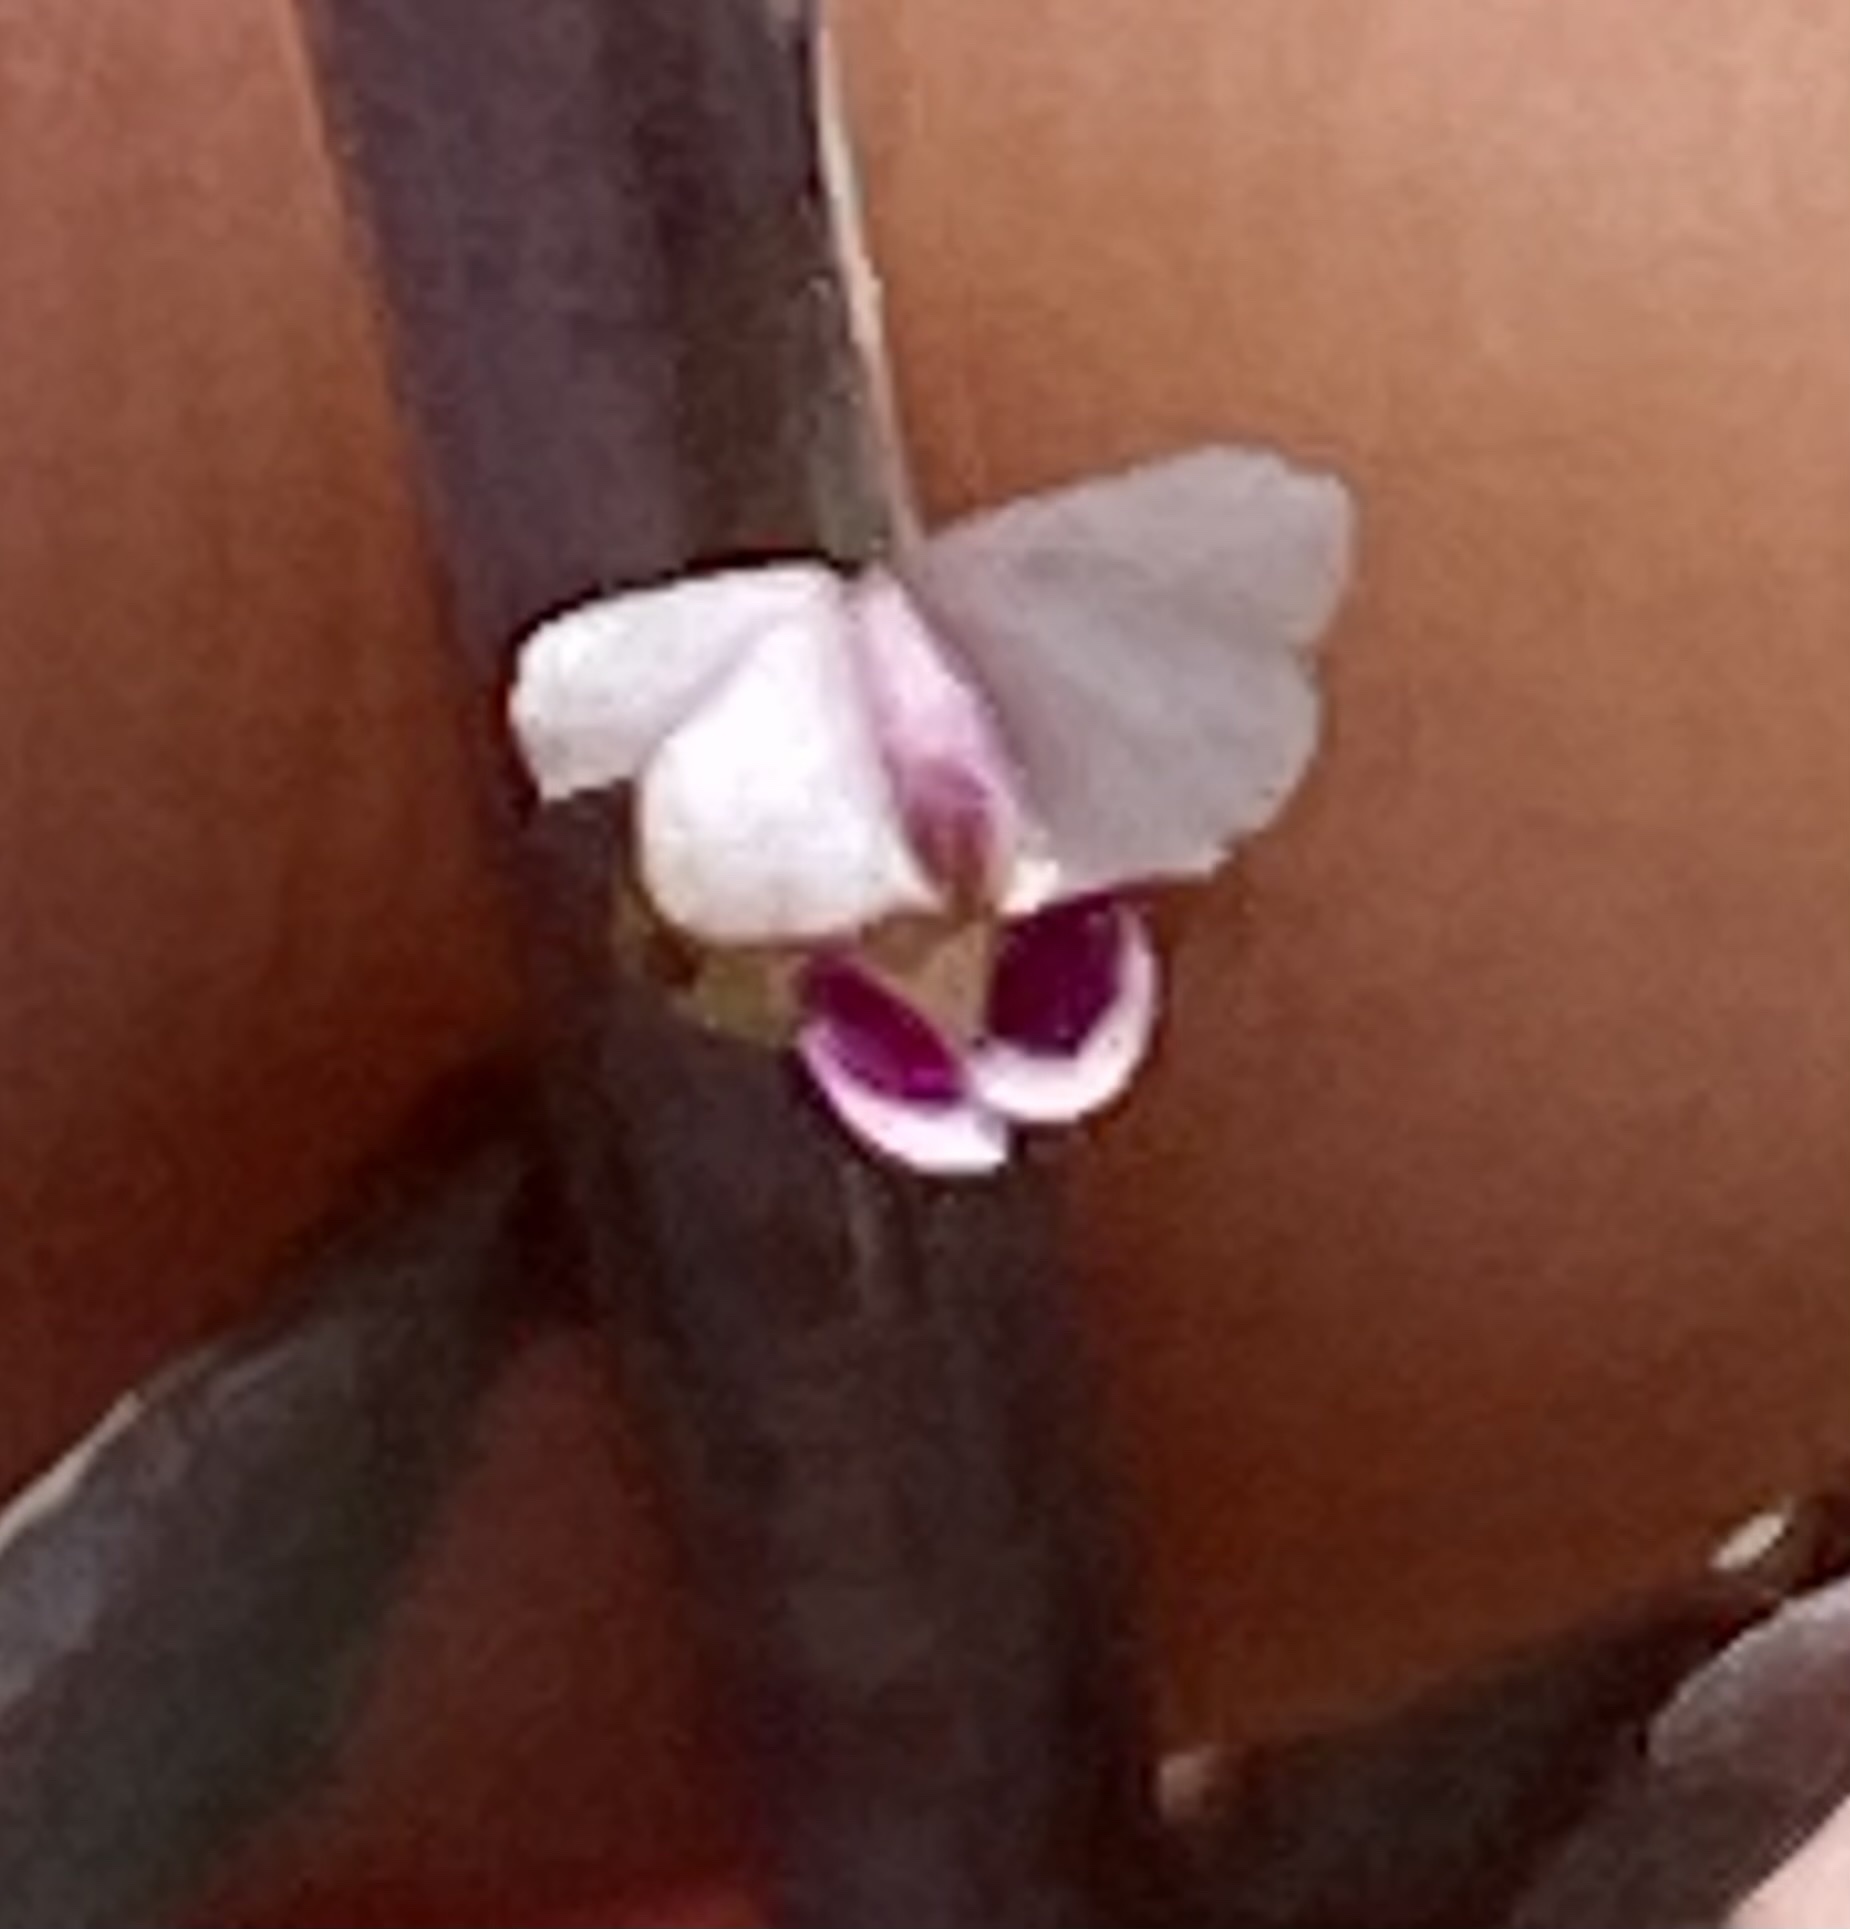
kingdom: Plantae
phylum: Tracheophyta
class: Magnoliopsida
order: Fabales
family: Polygalaceae
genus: Muraltia
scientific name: Muraltia muraltioides
